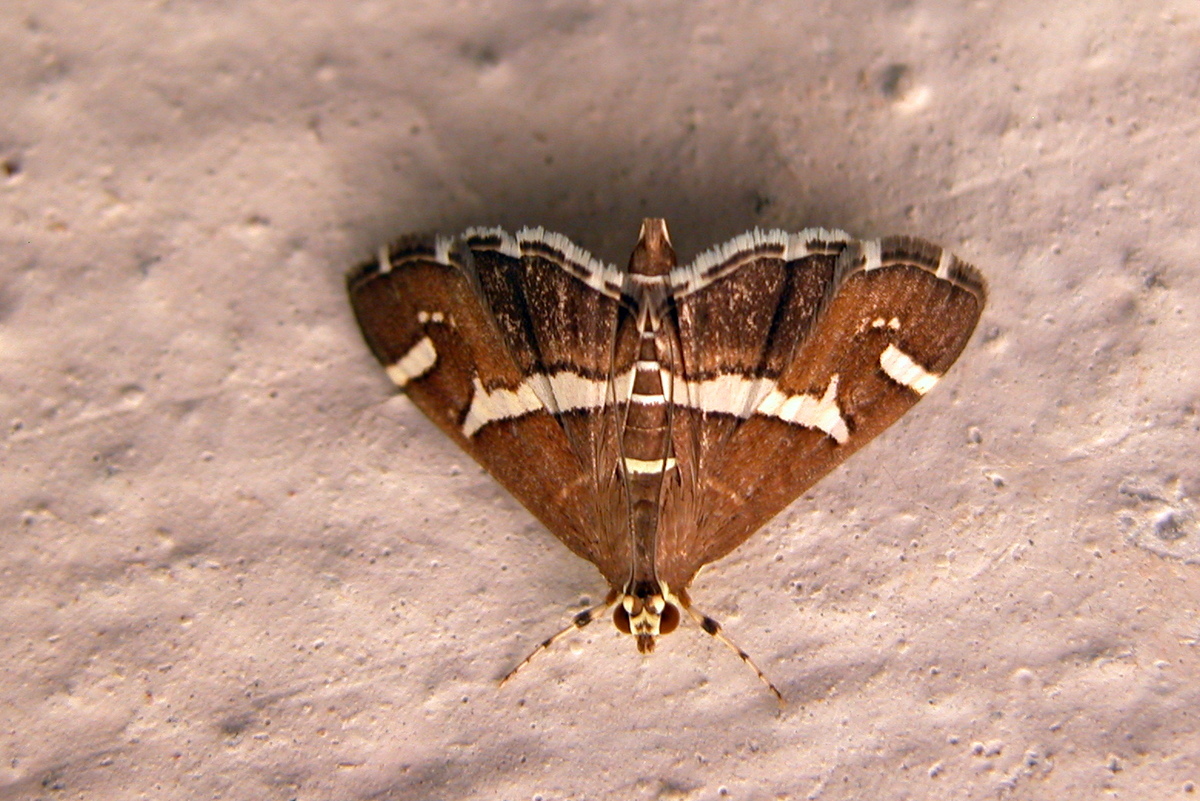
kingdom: Animalia
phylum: Arthropoda
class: Insecta
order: Lepidoptera
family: Crambidae
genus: Spoladea
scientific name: Spoladea recurvalis
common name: Beet webworm moth
